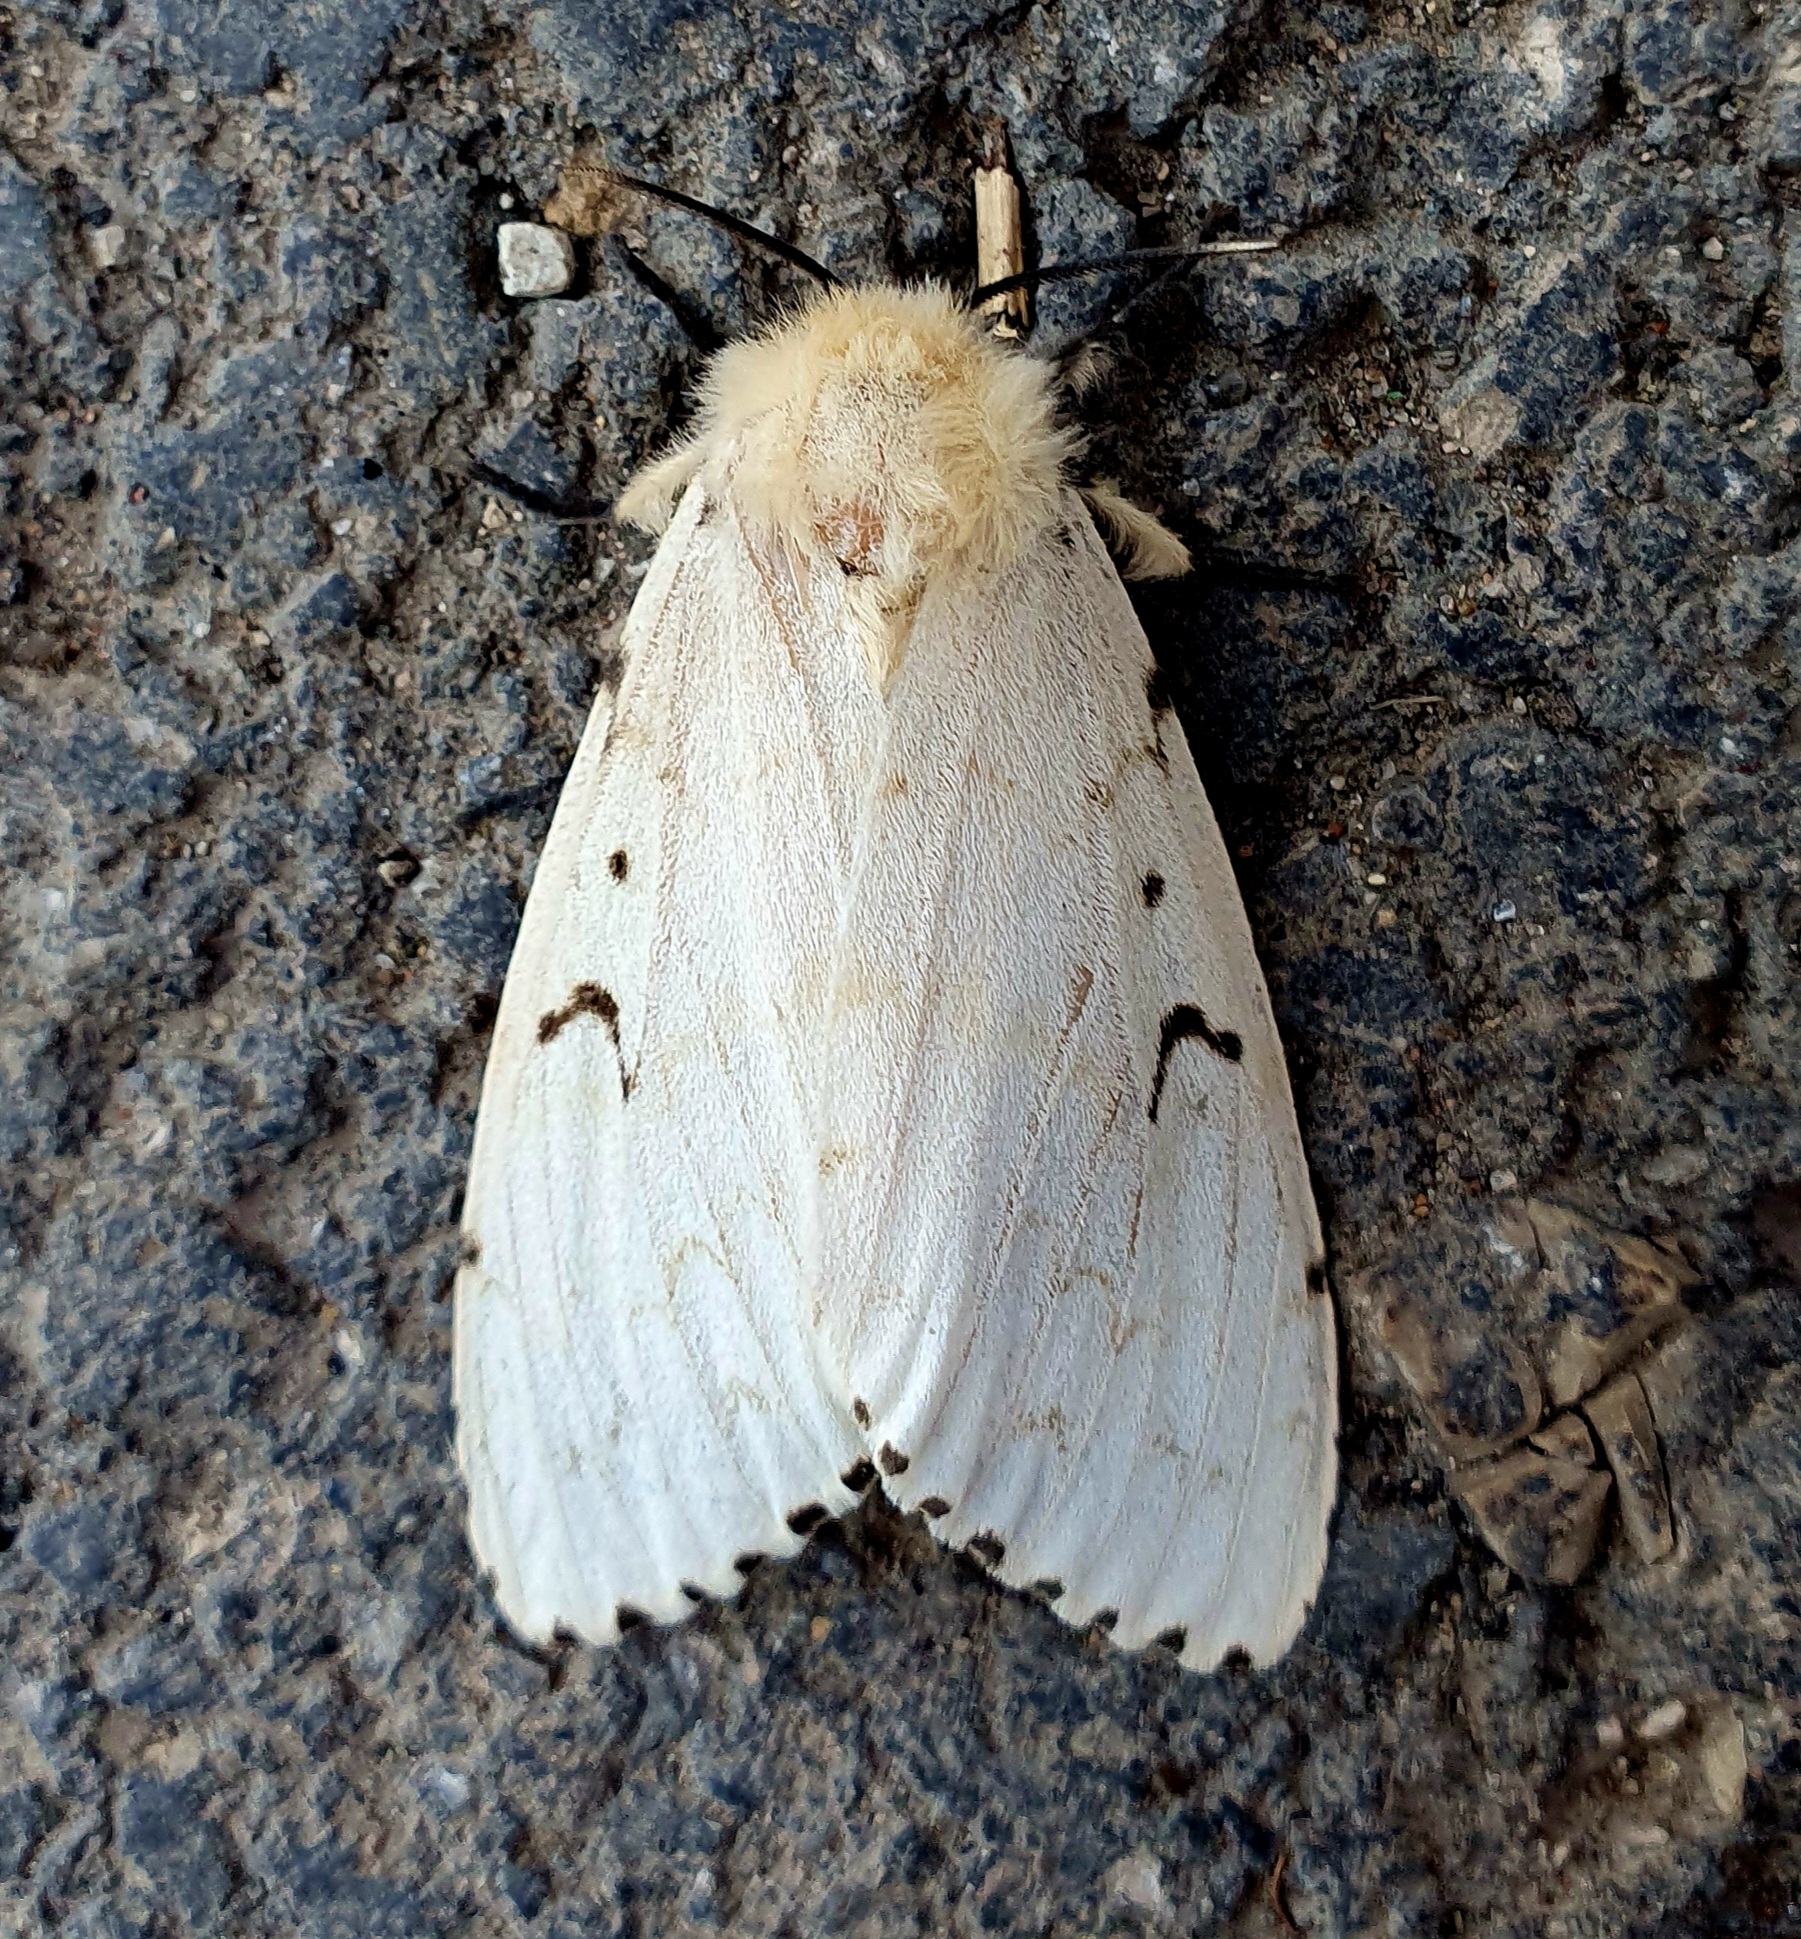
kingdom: Animalia
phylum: Arthropoda
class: Insecta
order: Lepidoptera
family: Erebidae
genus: Lymantria
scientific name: Lymantria dispar
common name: Gypsy moth
